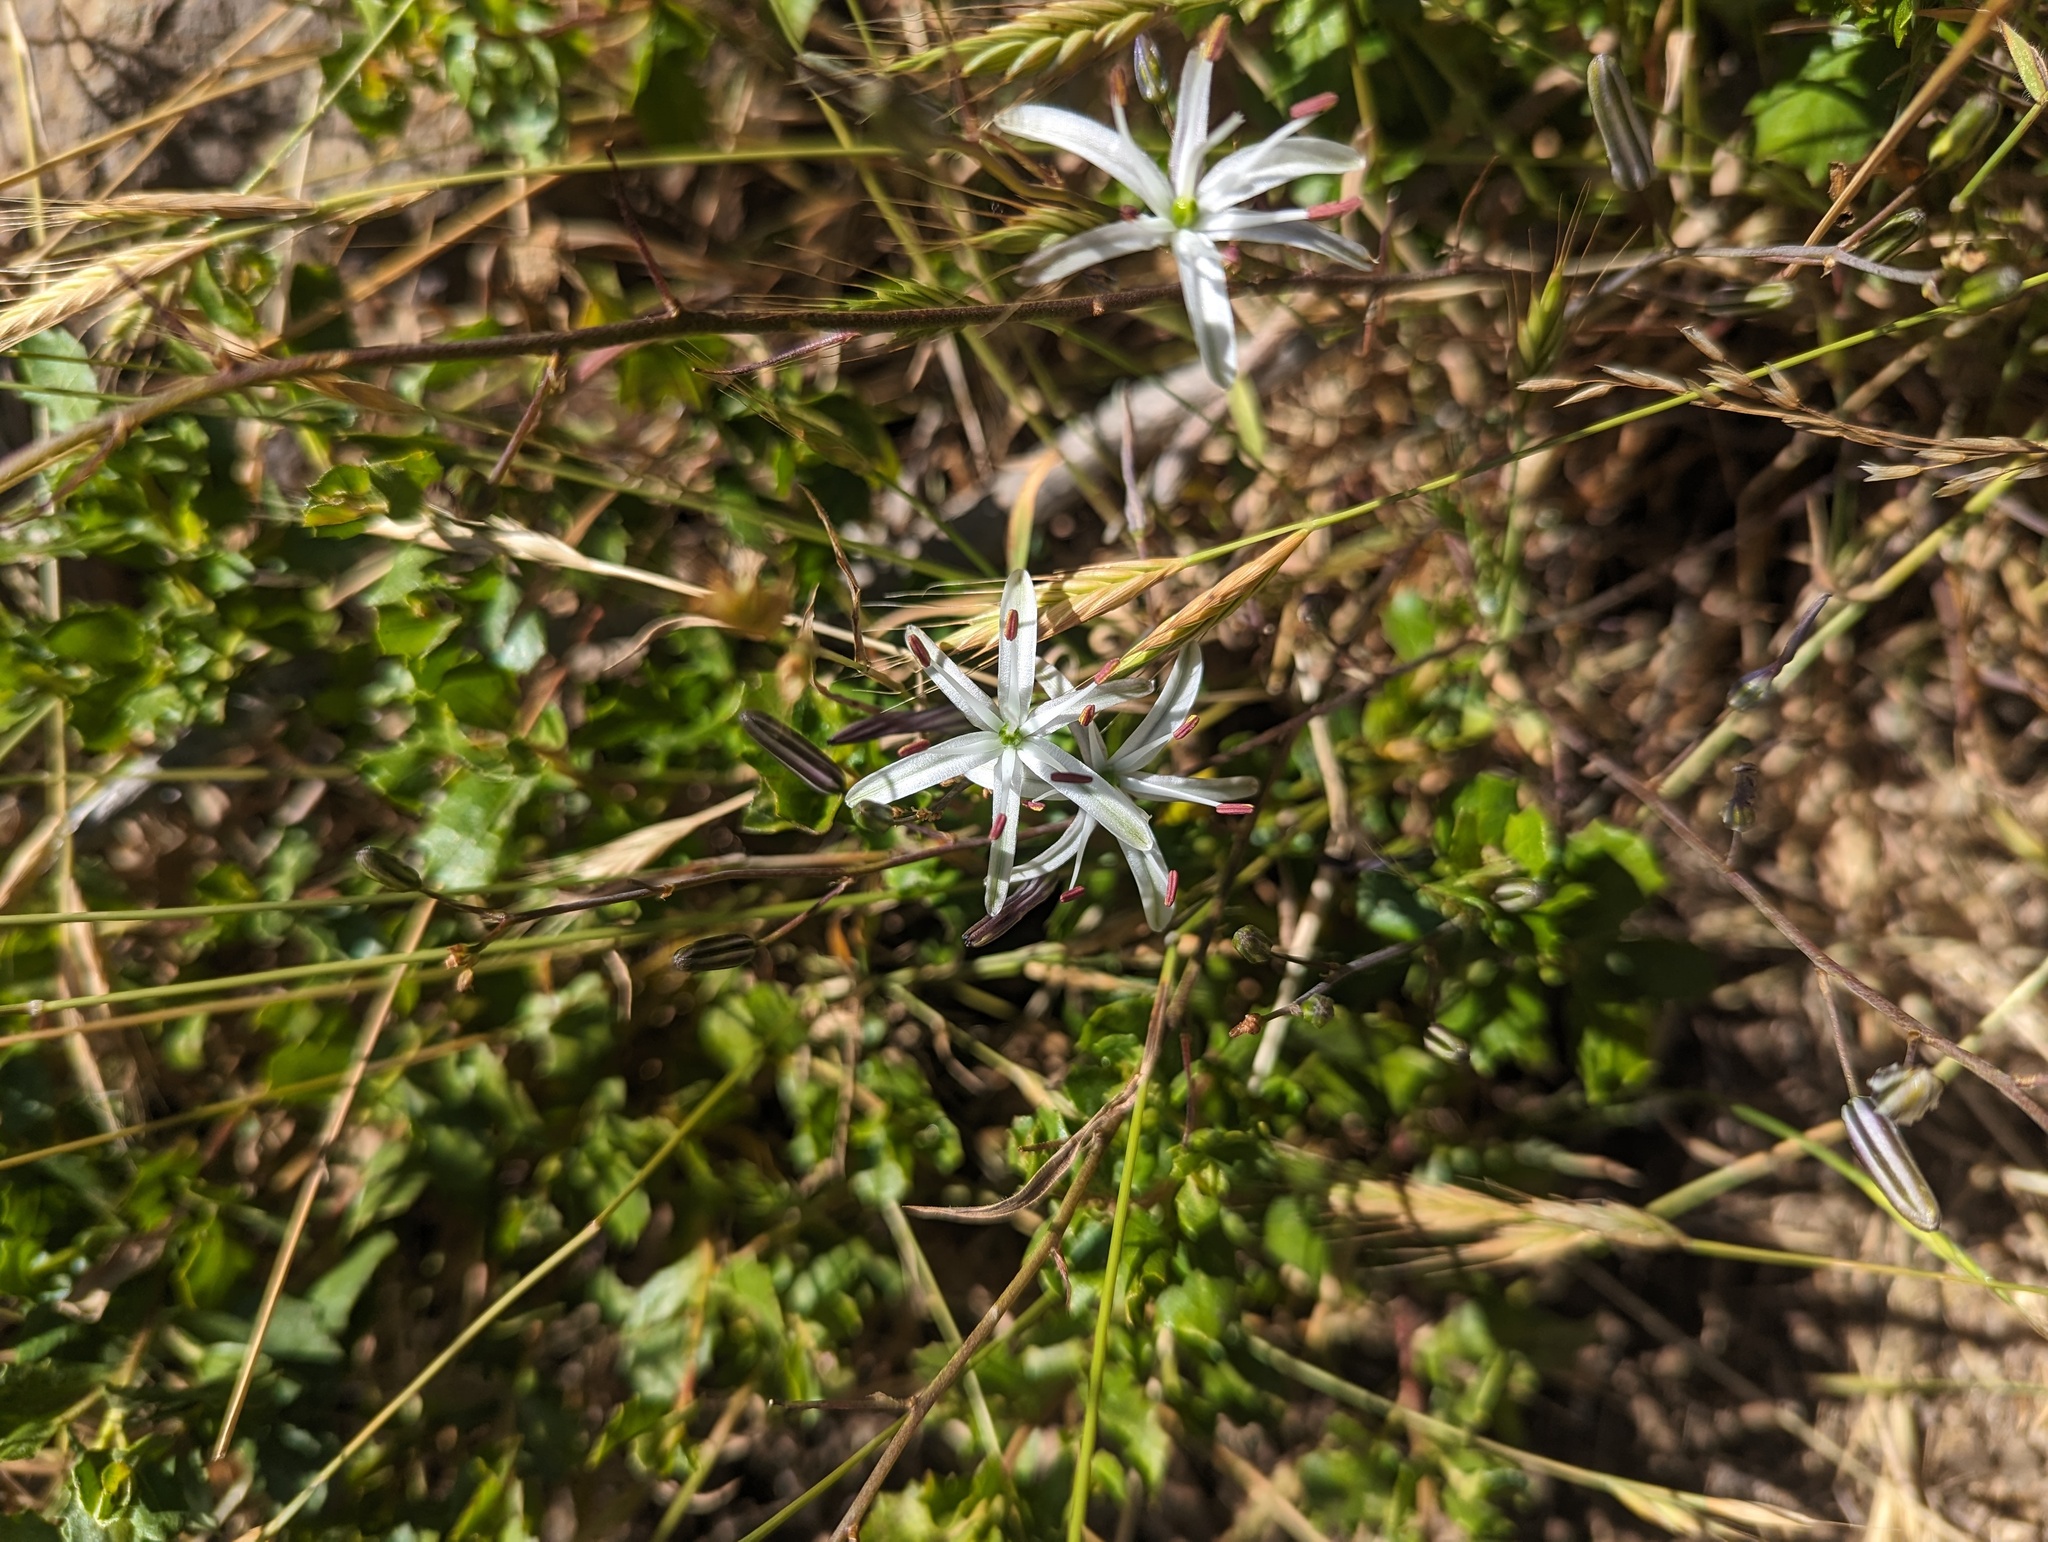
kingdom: Plantae
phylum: Tracheophyta
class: Liliopsida
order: Asparagales
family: Asparagaceae
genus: Chlorogalum
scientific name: Chlorogalum pomeridianum
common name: Amole
